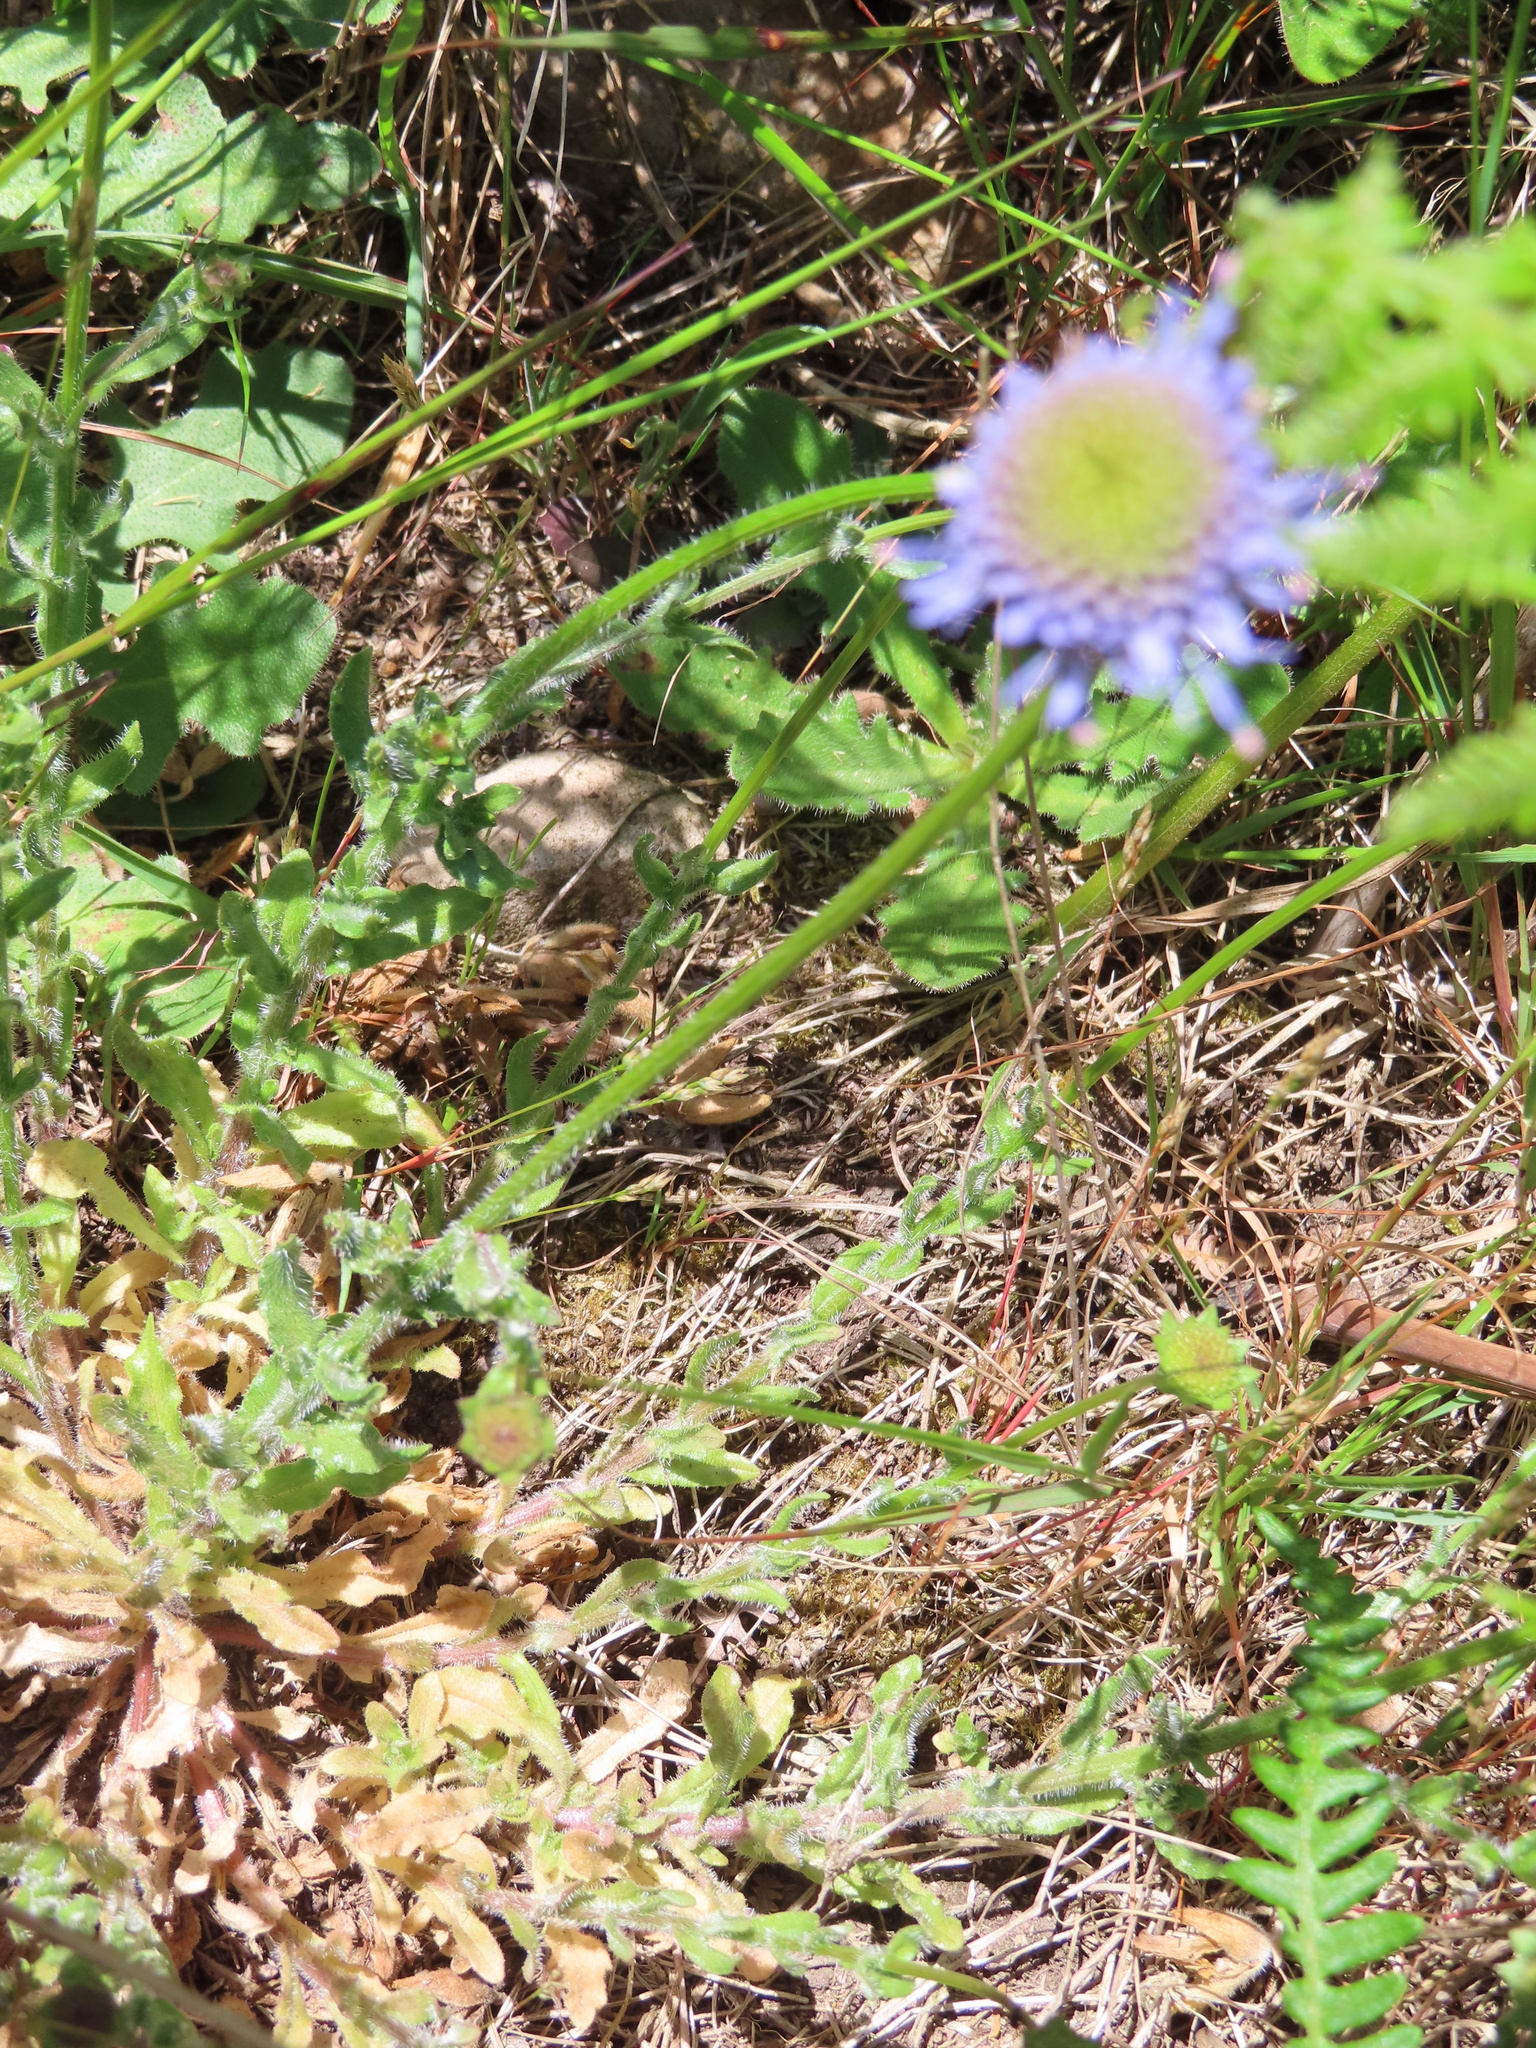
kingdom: Plantae
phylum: Tracheophyta
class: Magnoliopsida
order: Asterales
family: Campanulaceae
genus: Jasione
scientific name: Jasione montana
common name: Sheep's-bit
